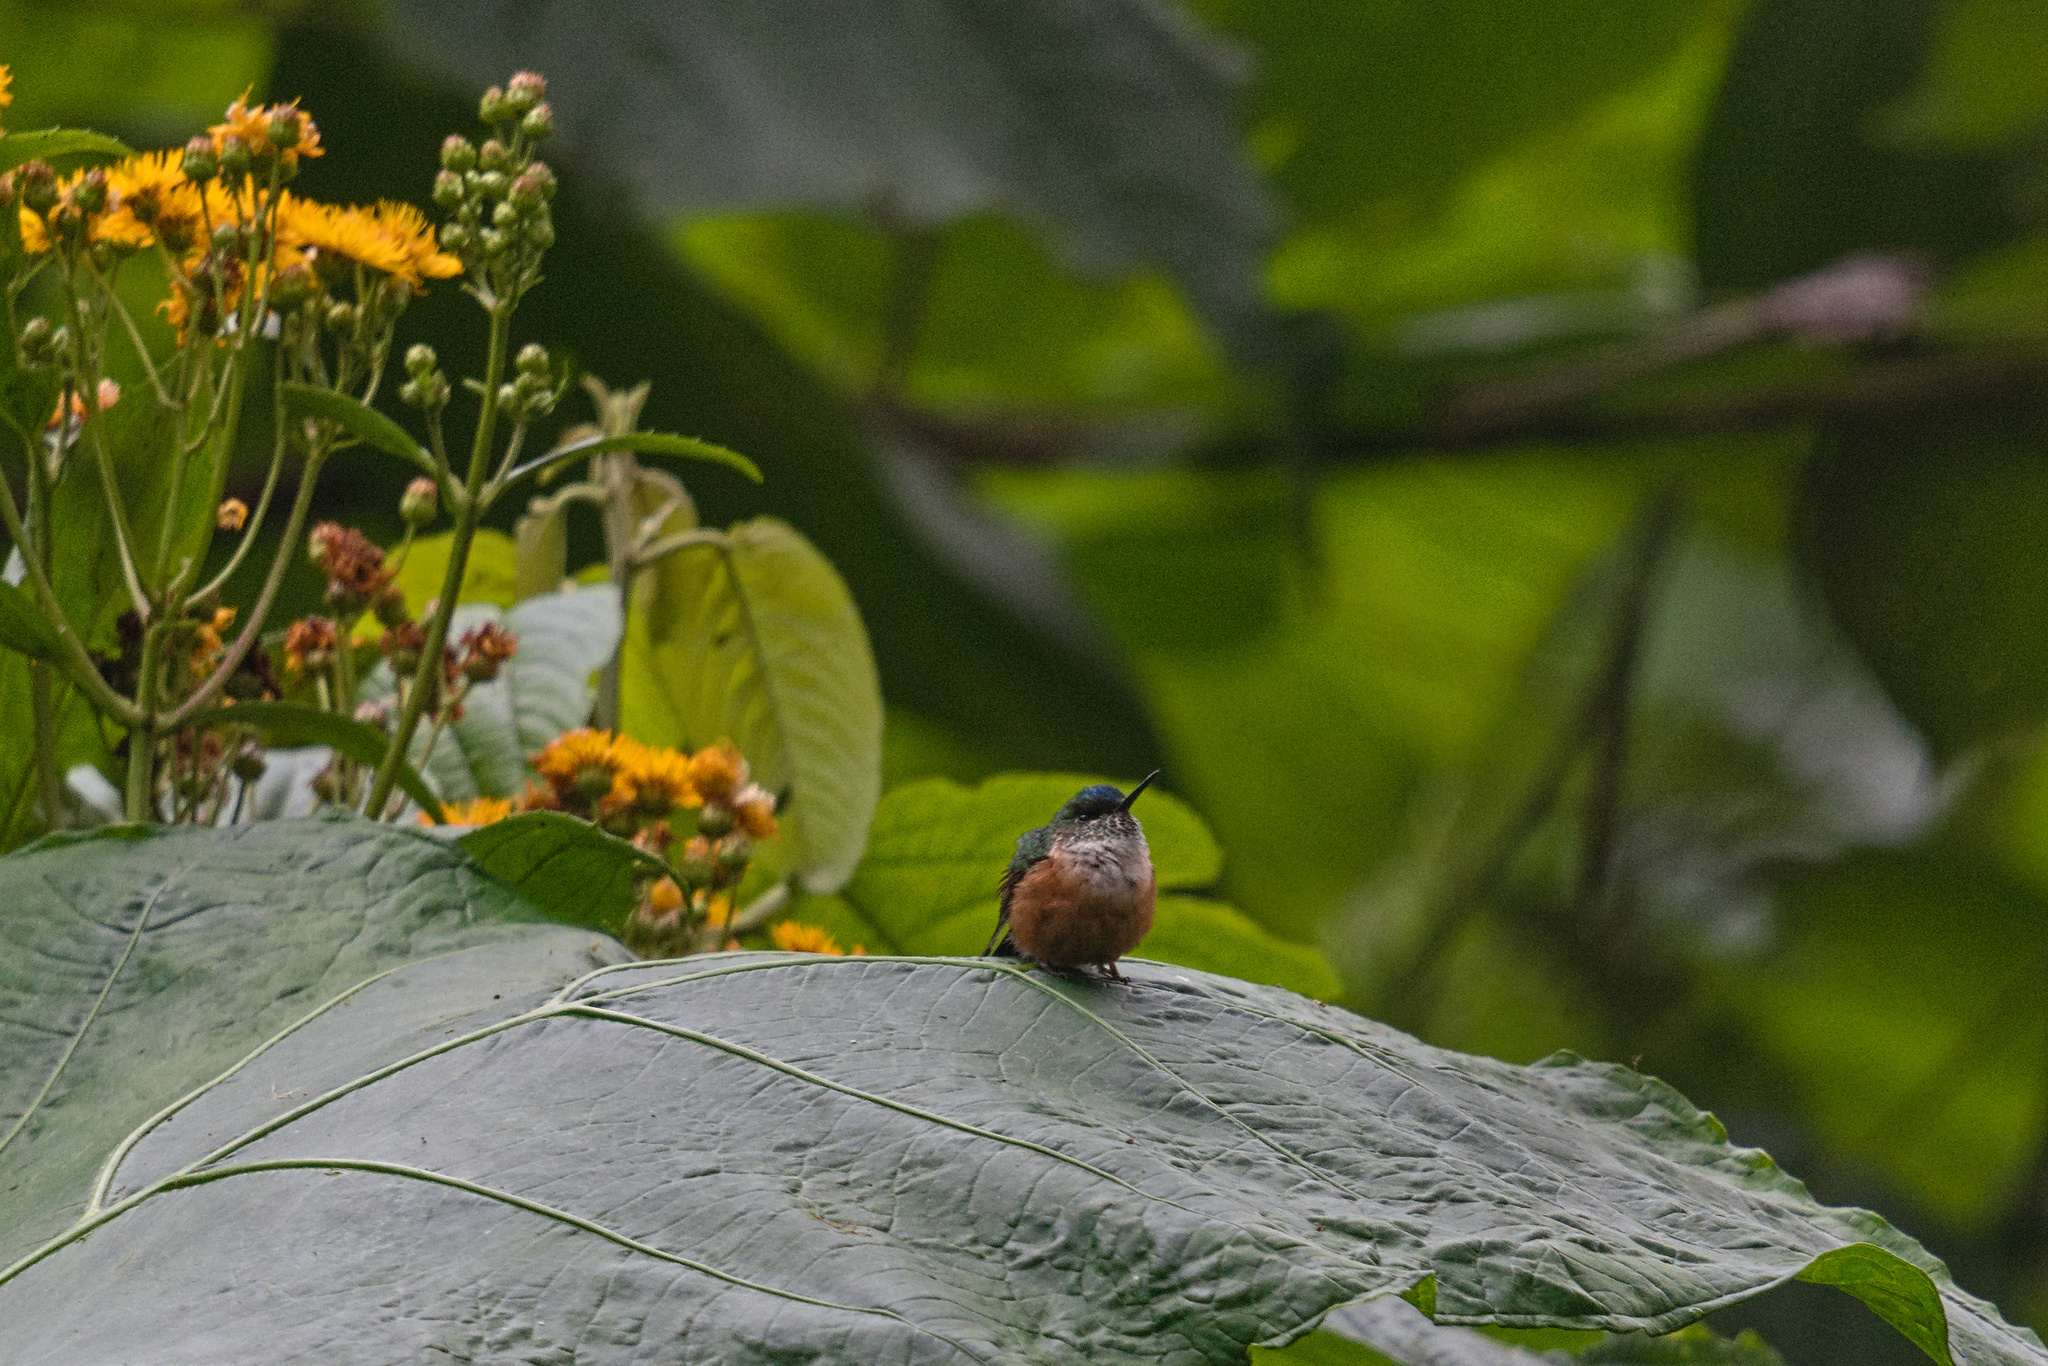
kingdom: Animalia
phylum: Chordata
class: Aves
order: Apodiformes
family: Trochilidae
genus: Aglaiocercus
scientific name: Aglaiocercus coelestis
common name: Violet-tailed sylph
